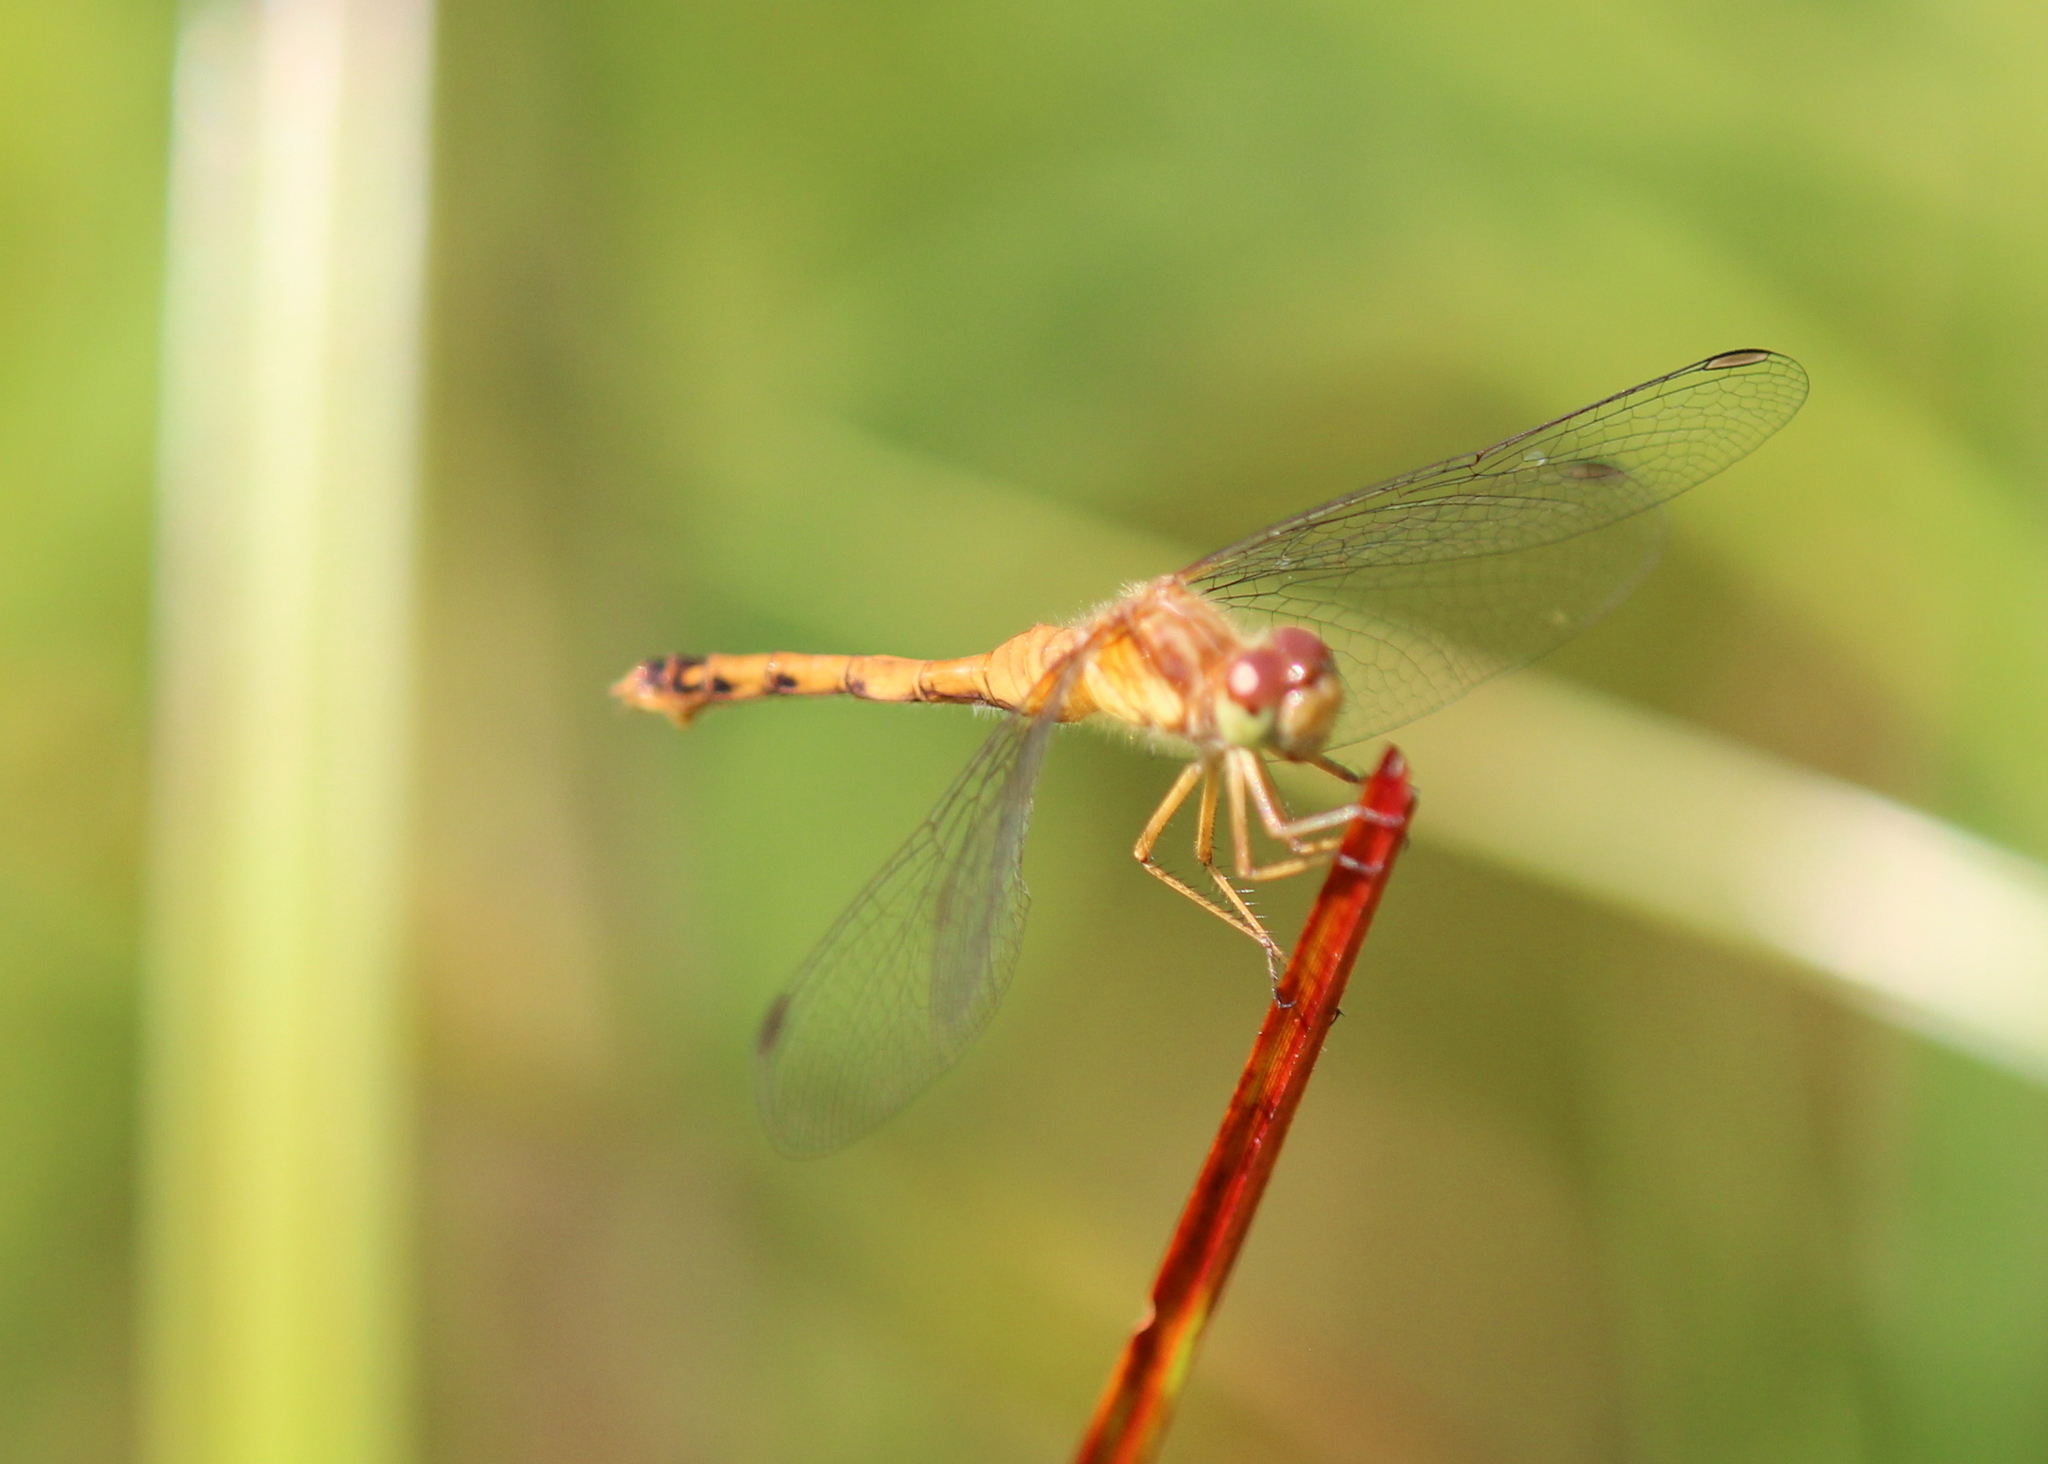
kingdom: Animalia
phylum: Arthropoda
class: Insecta
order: Odonata
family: Libellulidae
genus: Sympetrum
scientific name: Sympetrum vicinum
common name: Autumn meadowhawk
